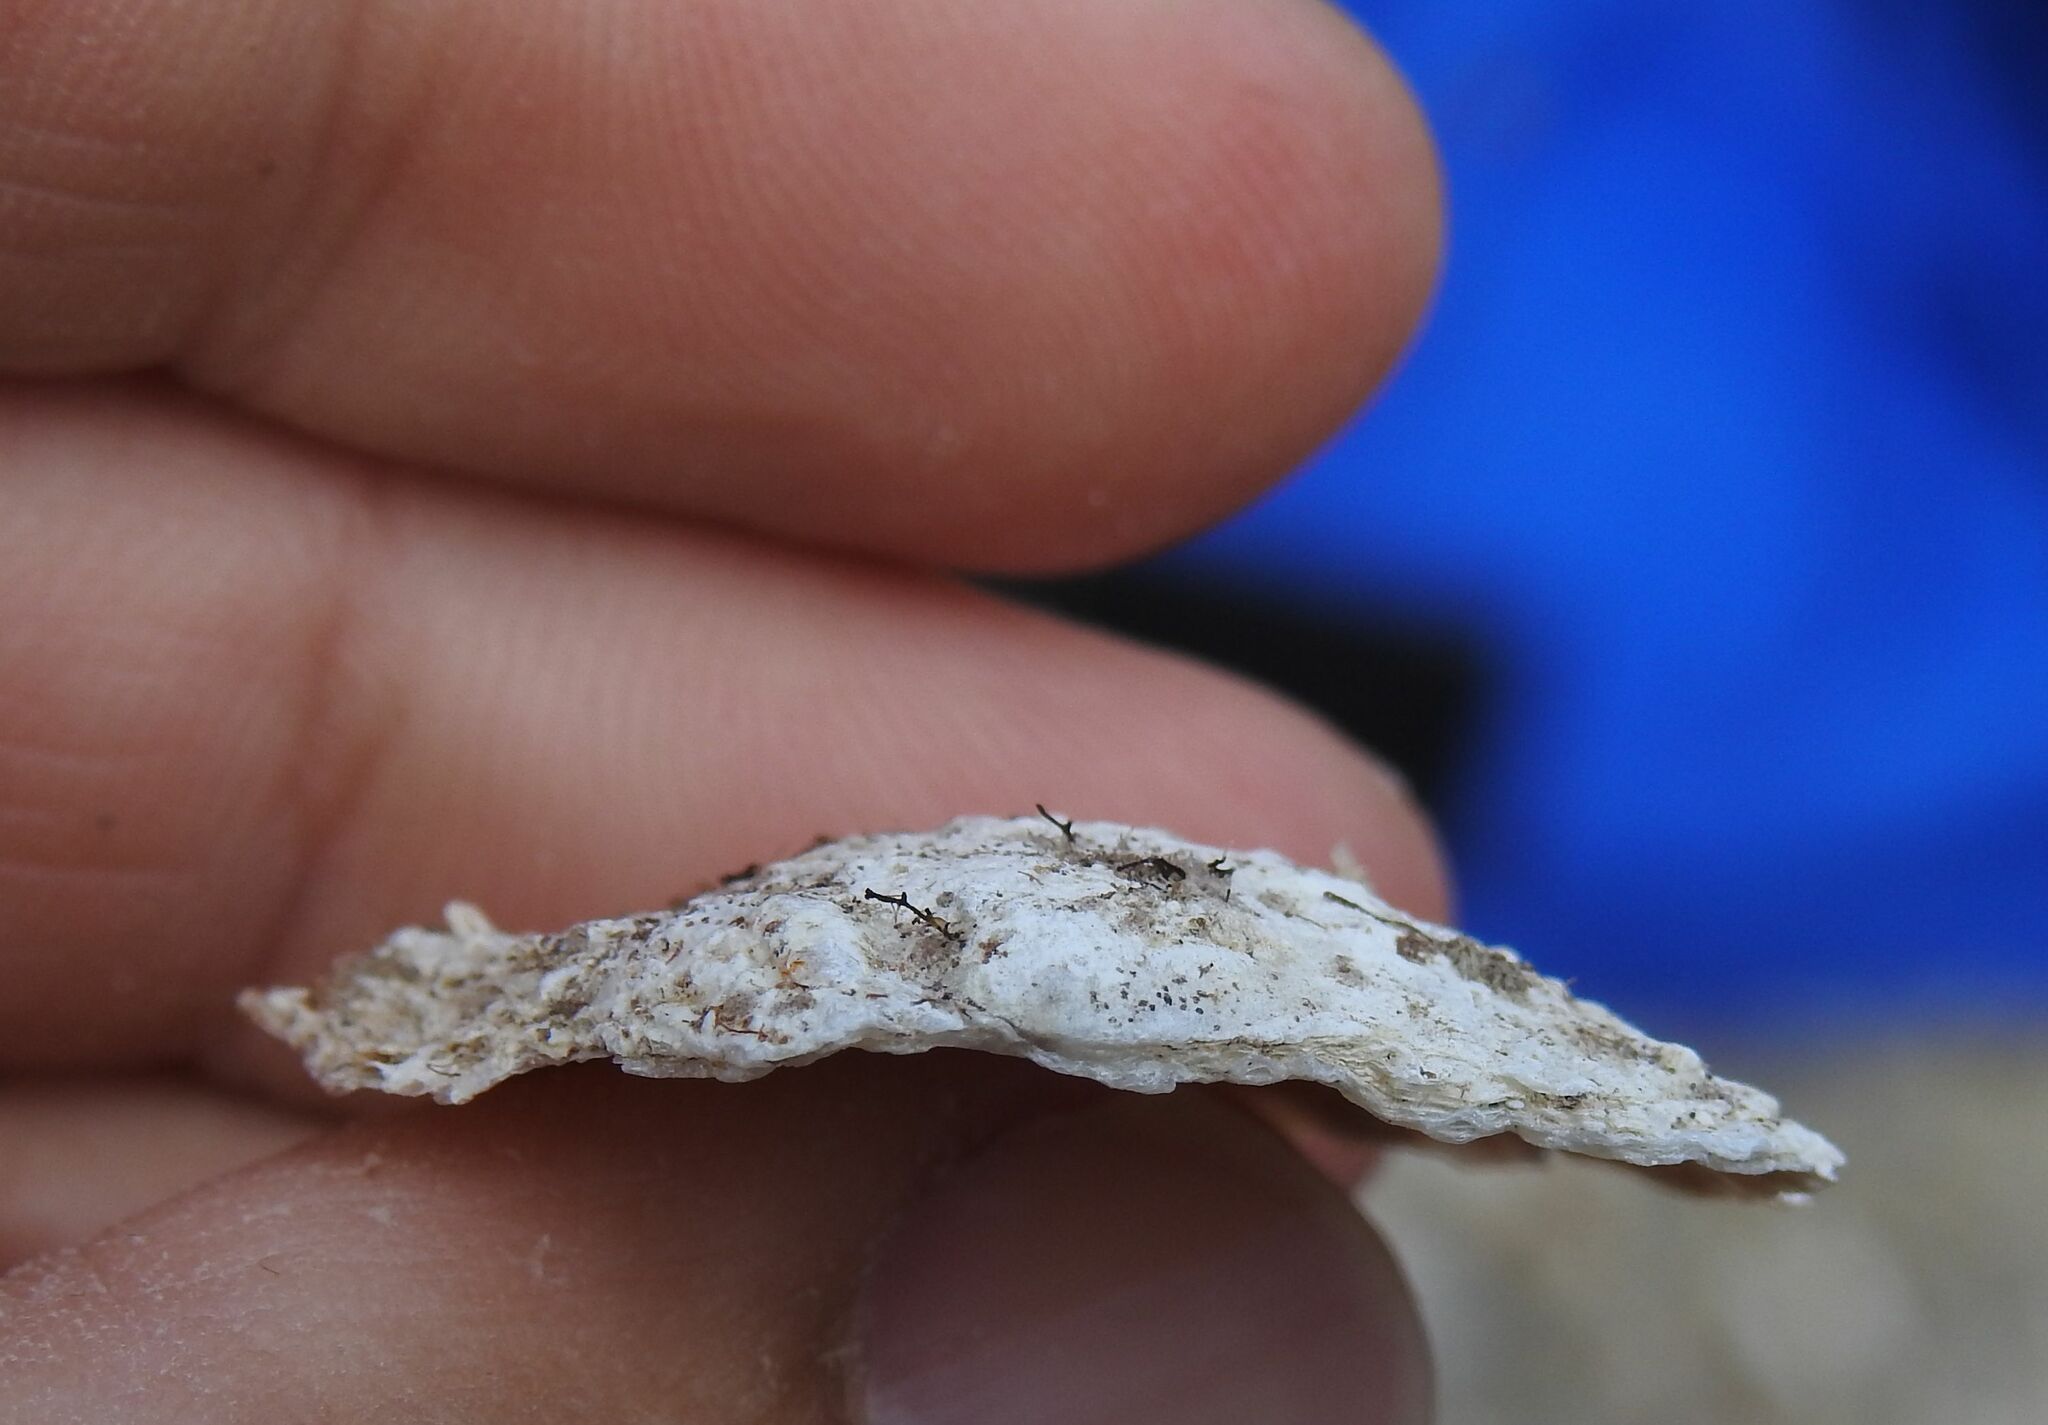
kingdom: Animalia
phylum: Mollusca
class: Bivalvia
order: Pectinida
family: Anomiidae
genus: Anomia
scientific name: Anomia ephippium
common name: Saddle oyster
